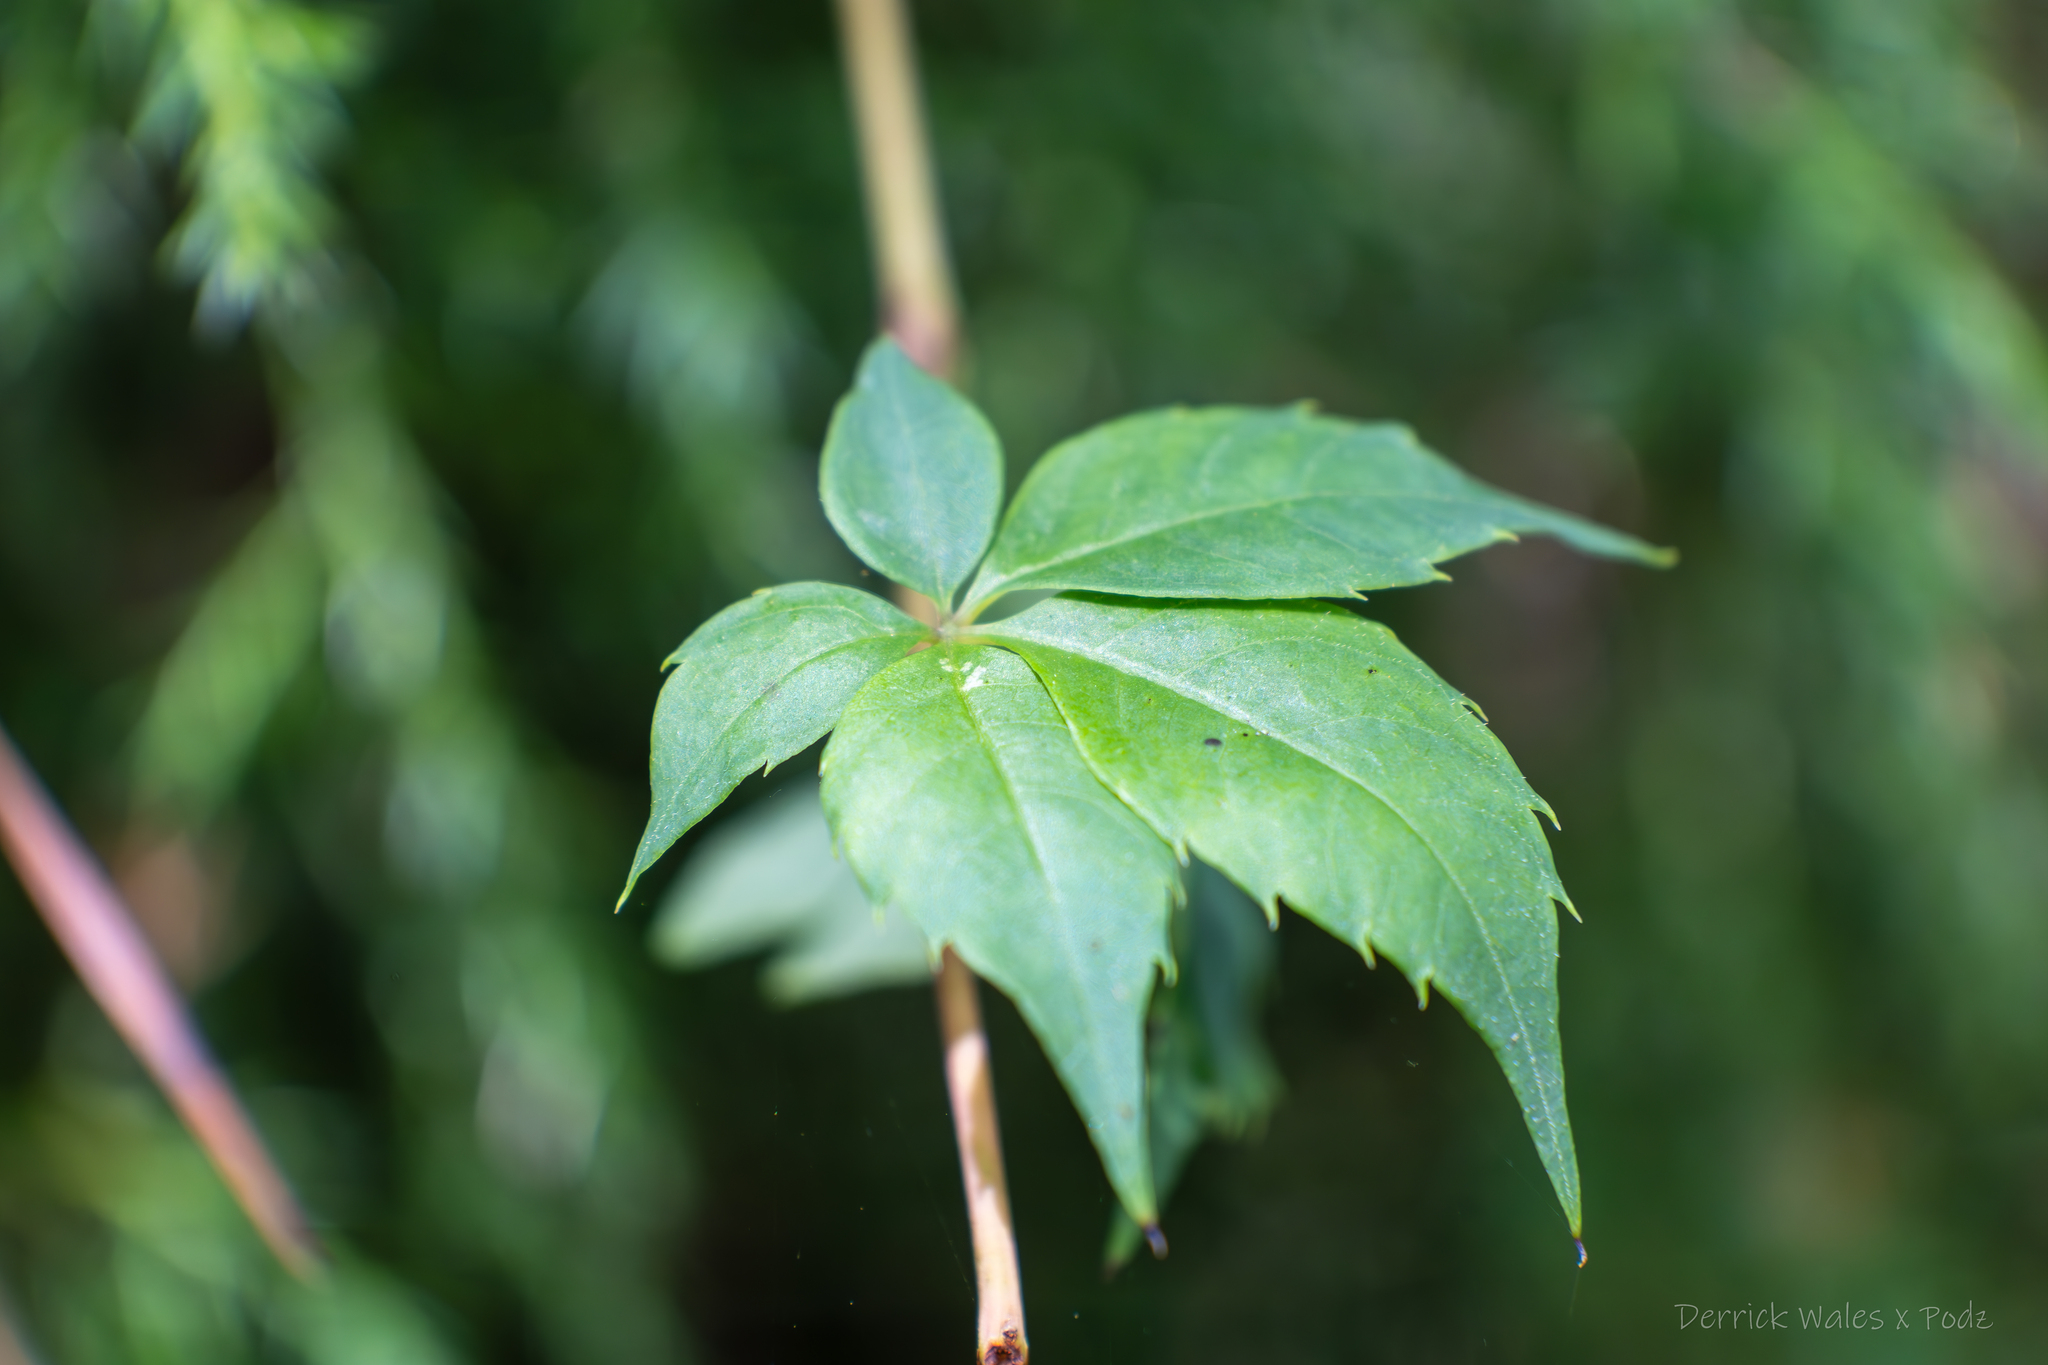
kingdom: Plantae
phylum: Tracheophyta
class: Magnoliopsida
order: Vitales
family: Vitaceae
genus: Parthenocissus
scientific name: Parthenocissus quinquefolia
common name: Virginia-creeper
